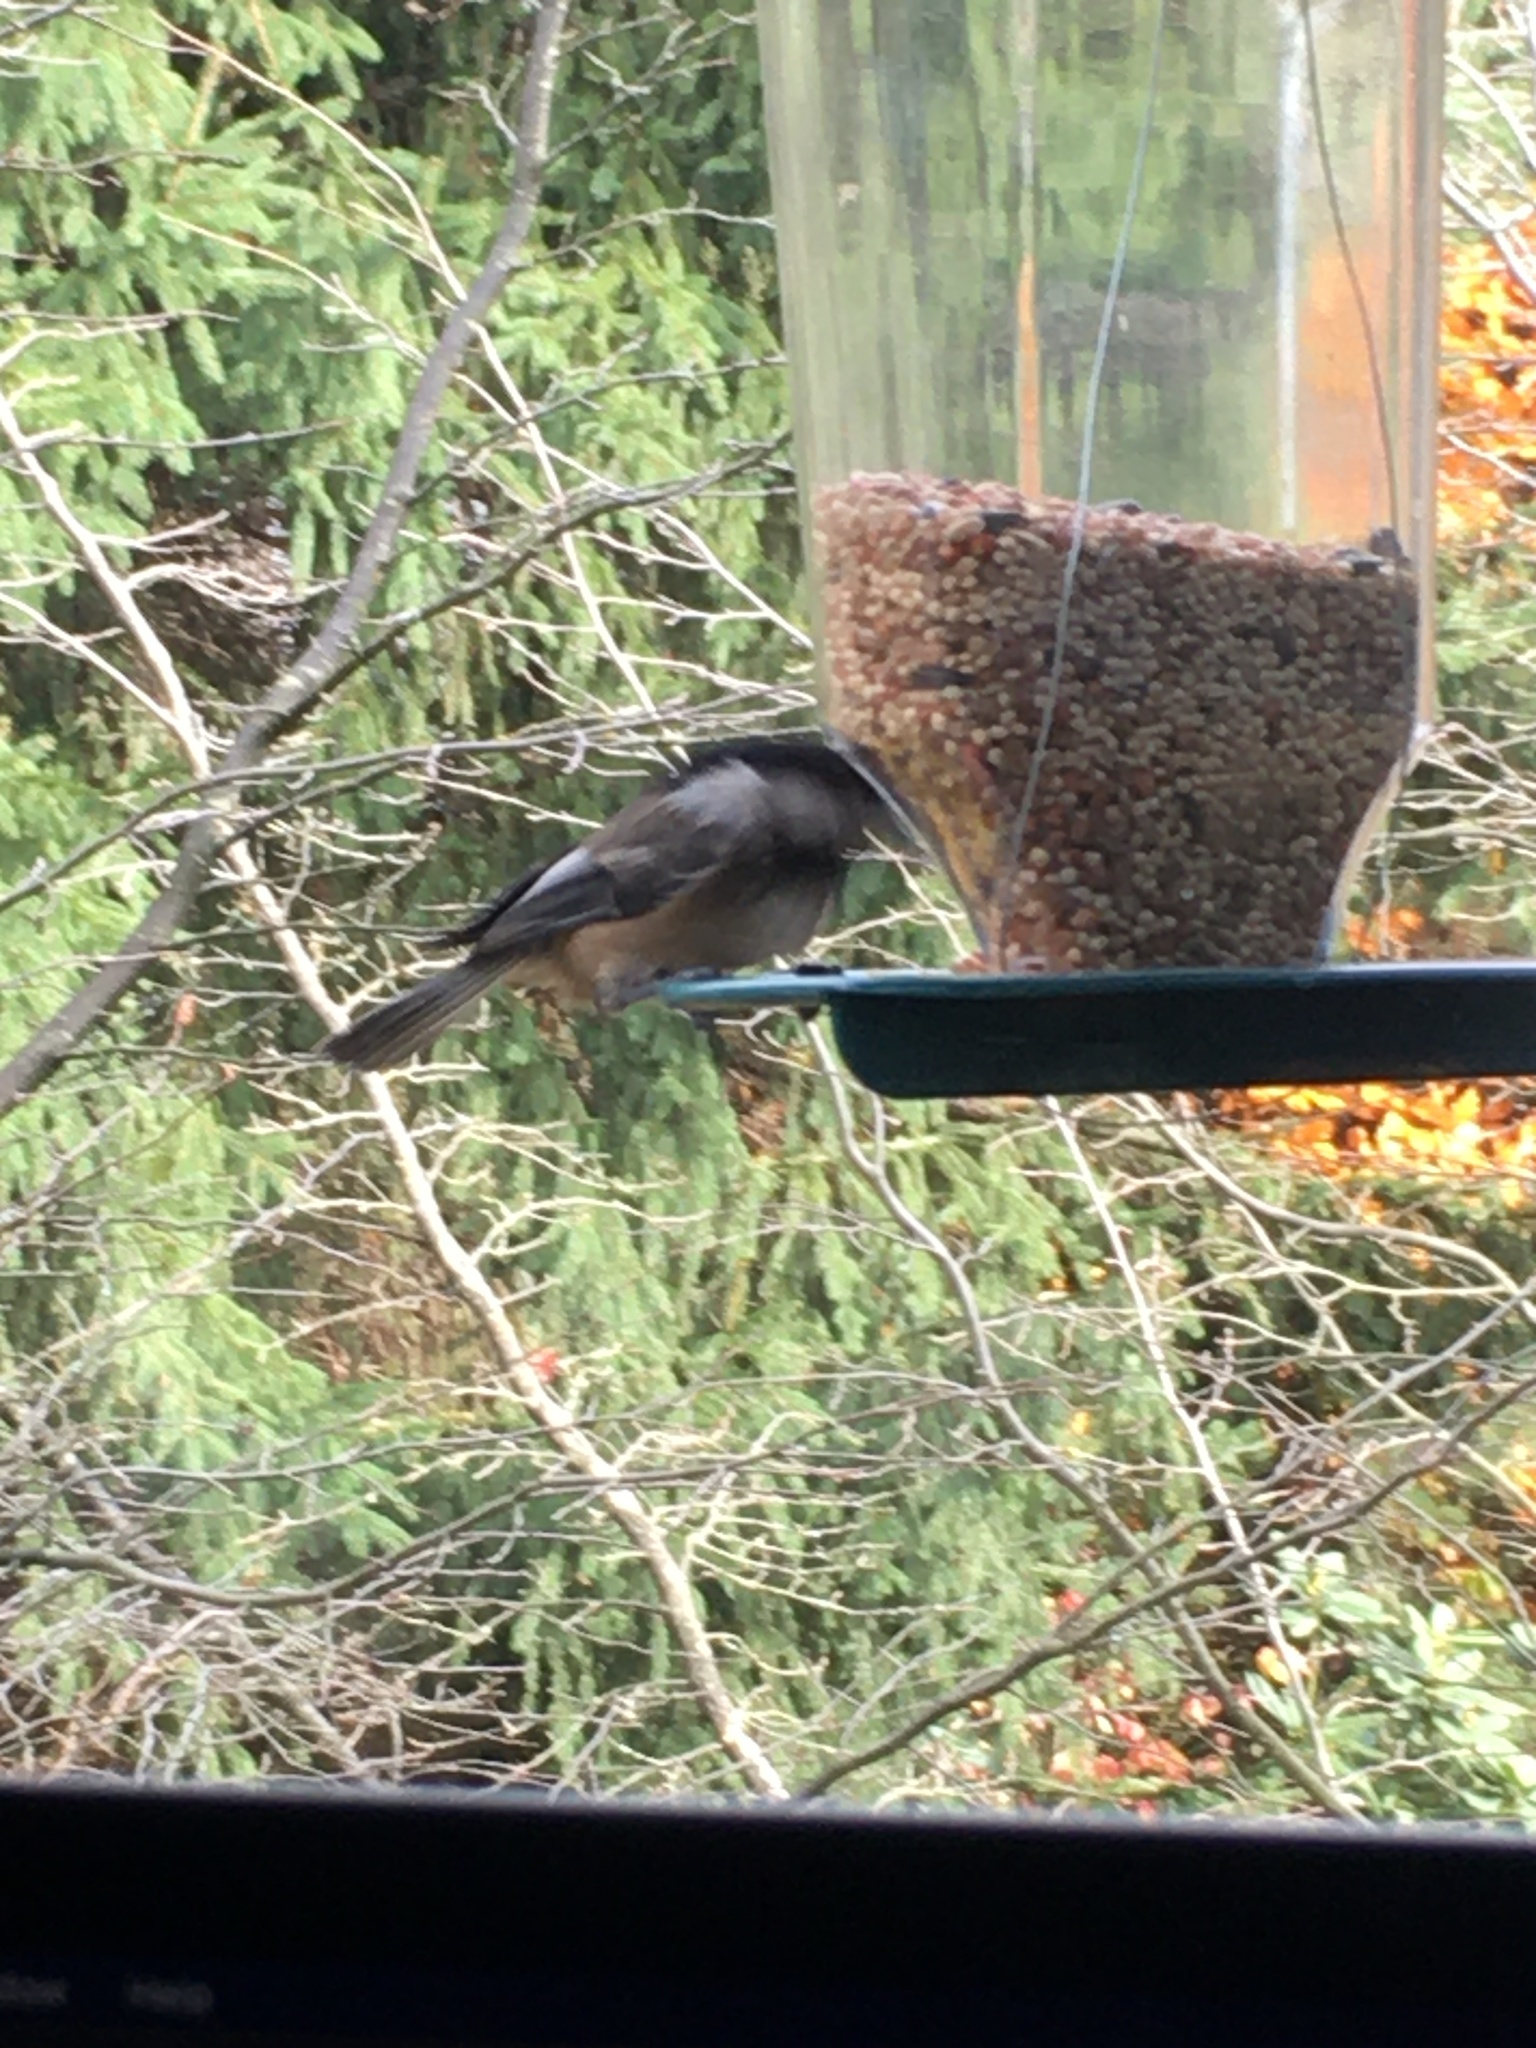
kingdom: Animalia
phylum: Chordata
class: Aves
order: Passeriformes
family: Paridae
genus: Poecile
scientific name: Poecile atricapillus
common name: Black-capped chickadee
